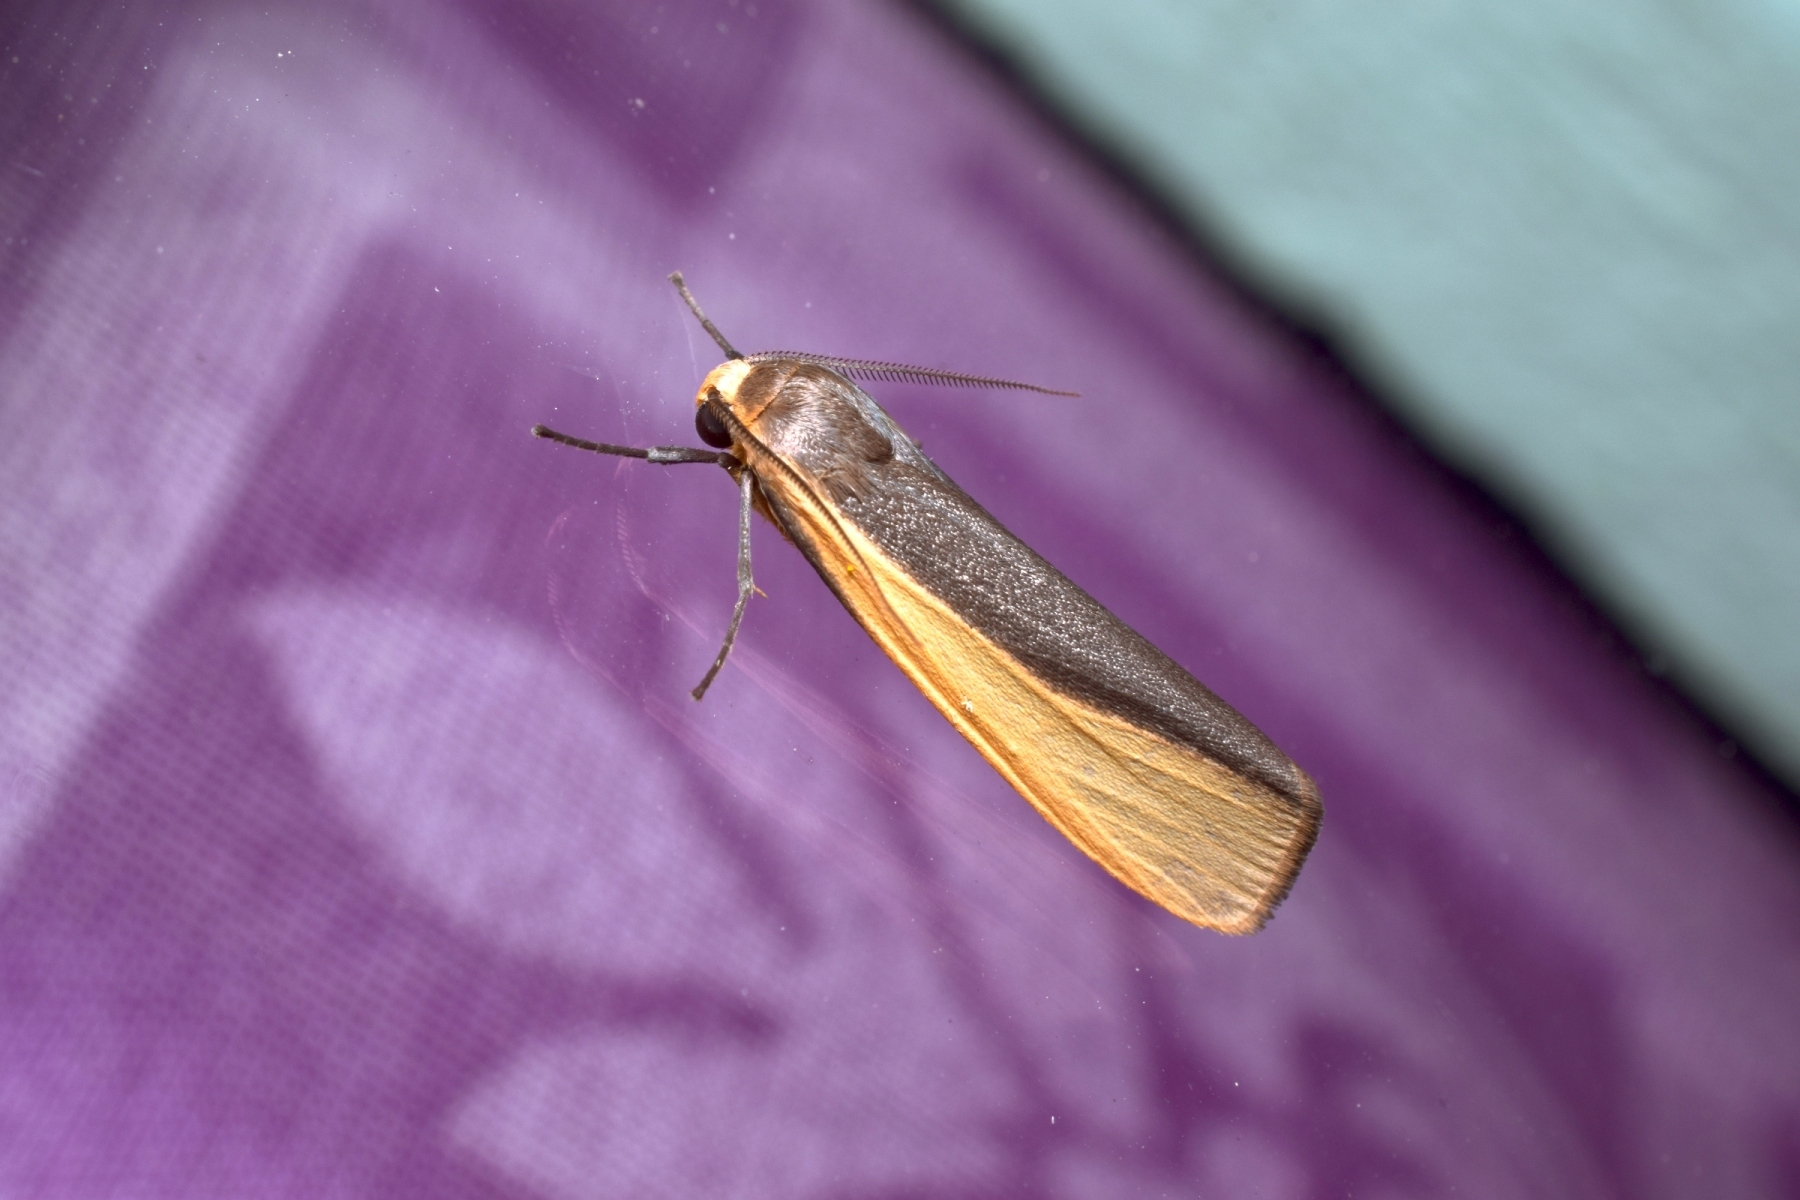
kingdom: Animalia
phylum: Arthropoda
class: Insecta
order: Lepidoptera
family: Erebidae
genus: Hesudra
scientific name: Hesudra divisa
